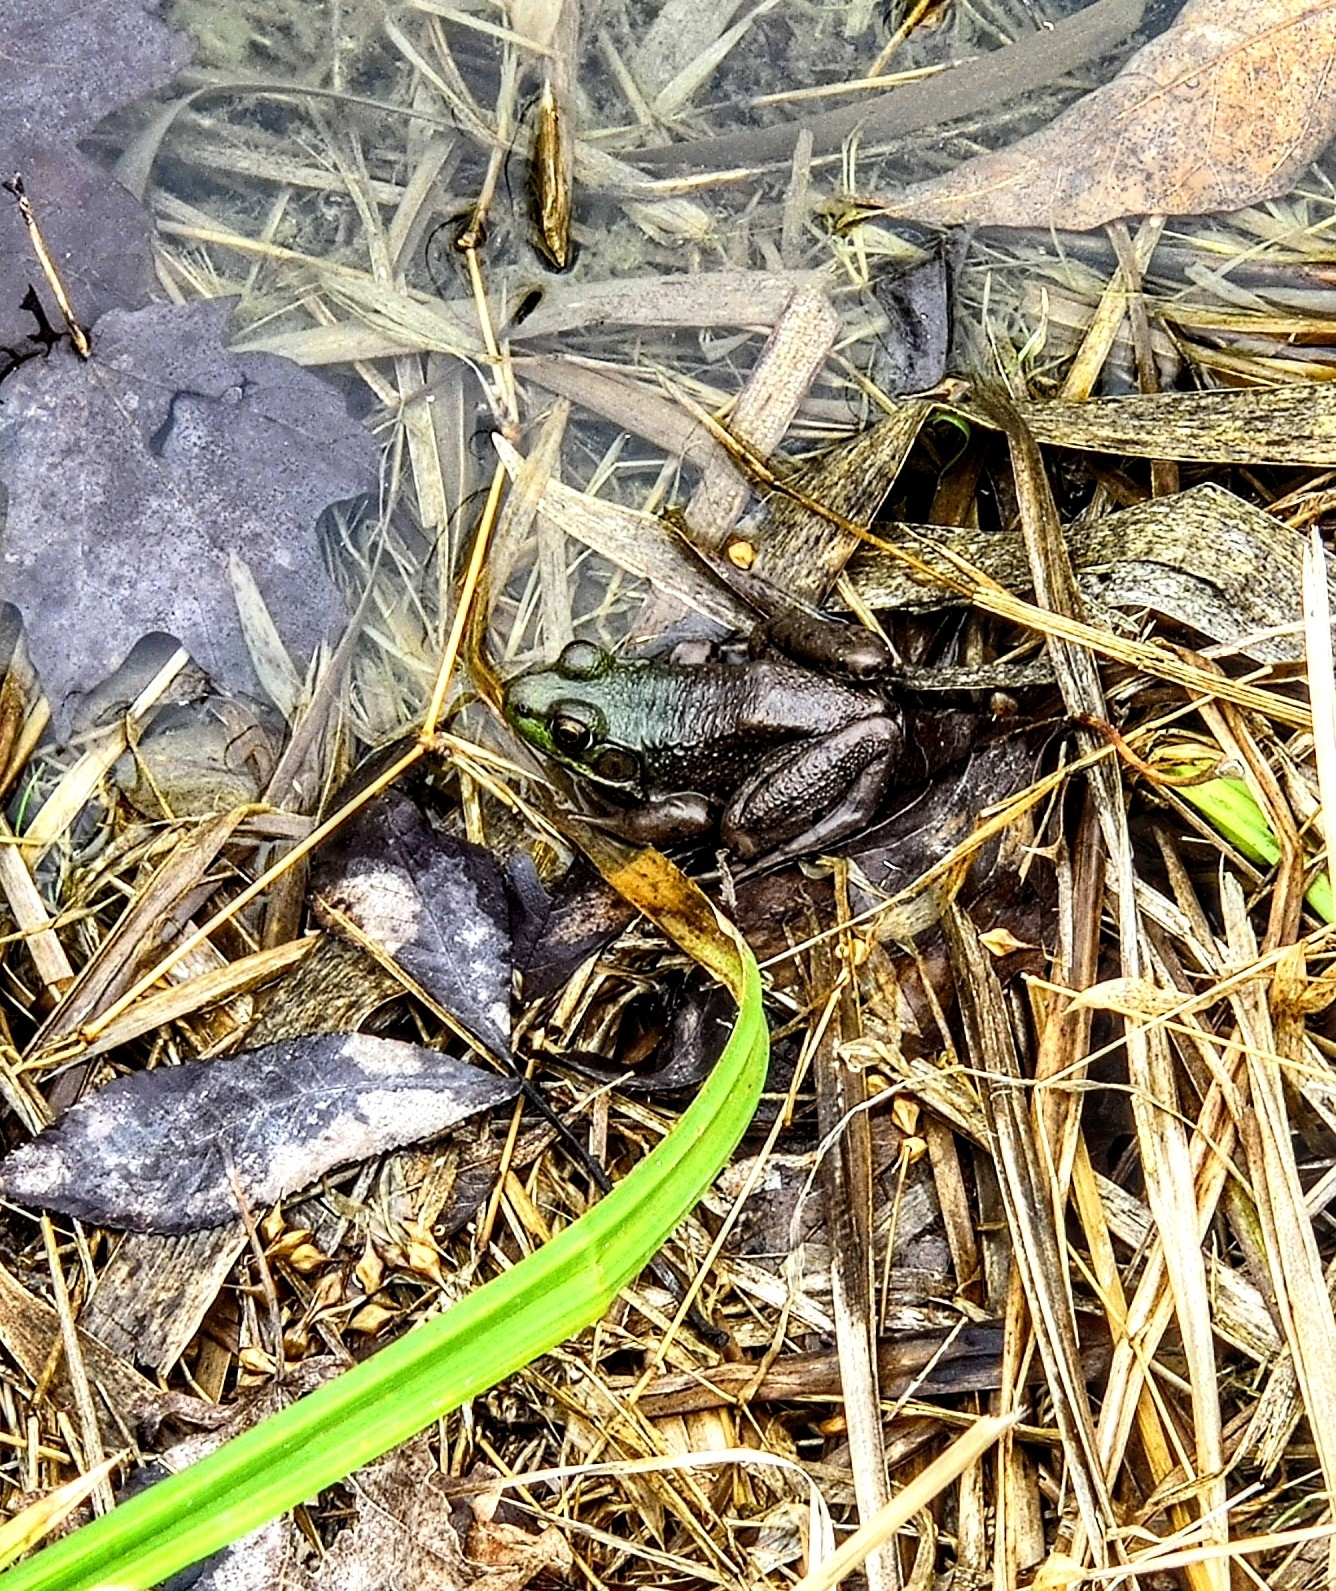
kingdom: Animalia
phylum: Chordata
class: Amphibia
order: Anura
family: Ranidae
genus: Lithobates
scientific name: Lithobates clamitans
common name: Green frog
